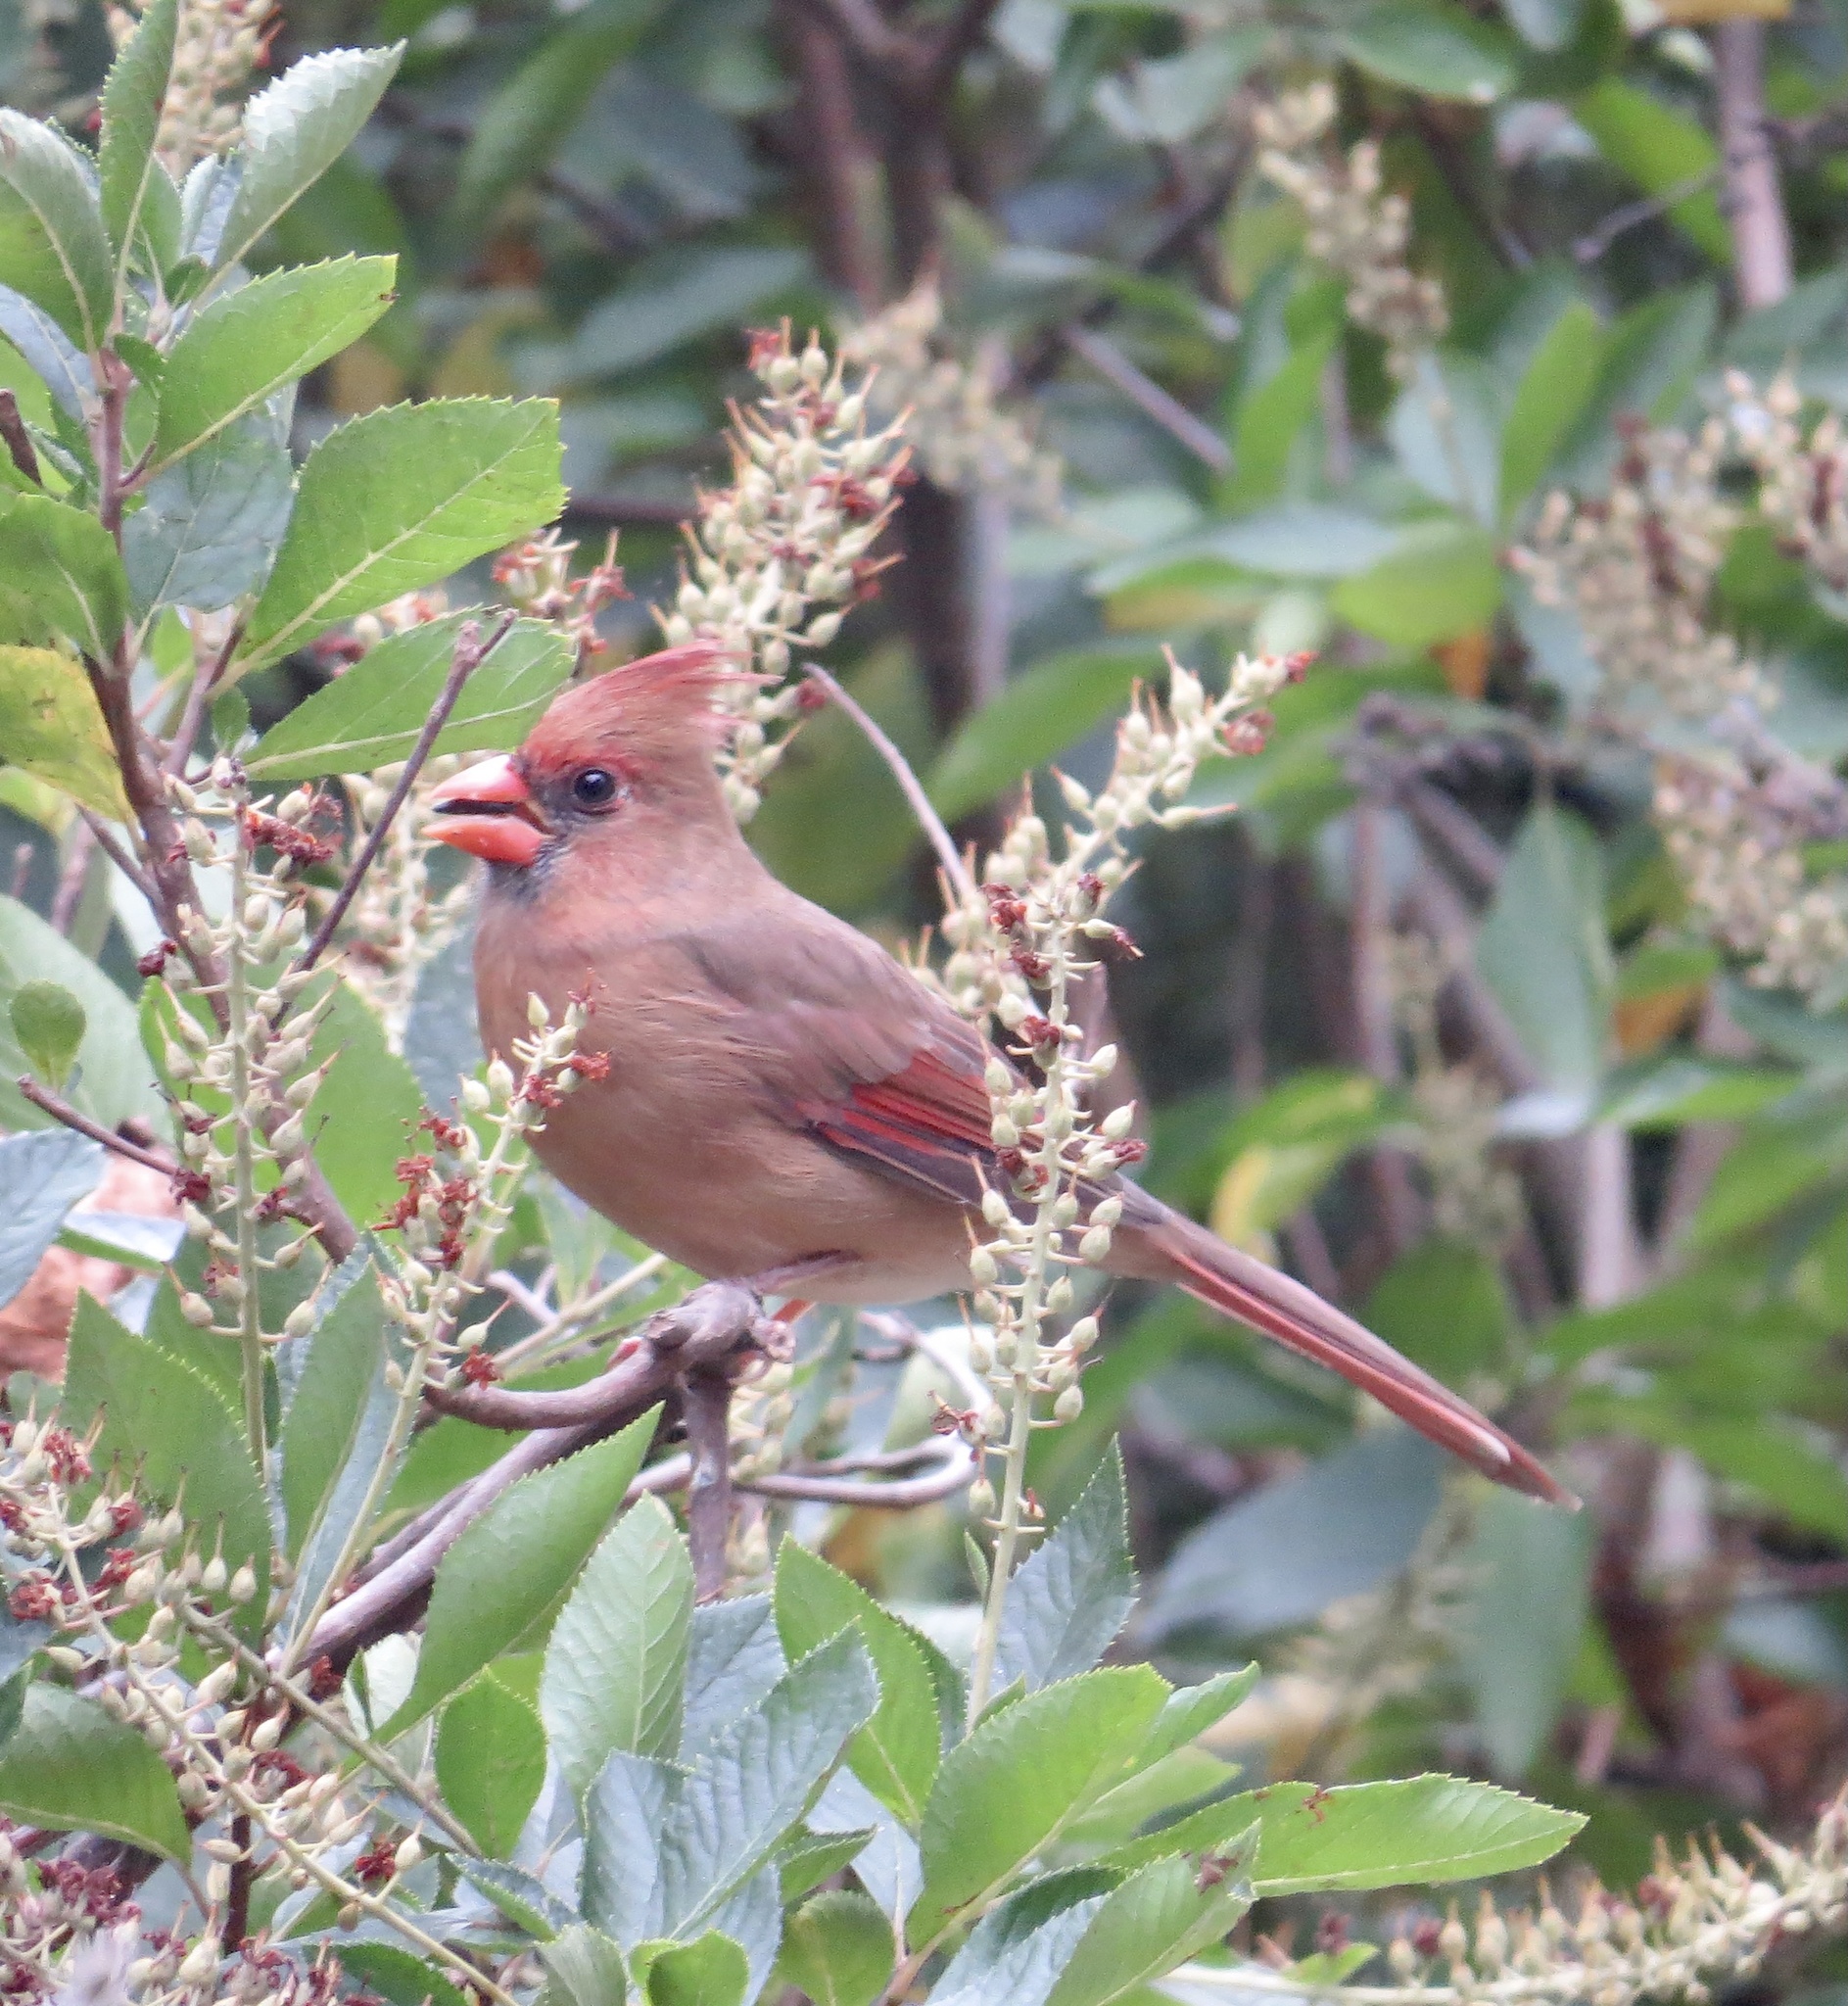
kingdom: Animalia
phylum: Chordata
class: Aves
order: Passeriformes
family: Cardinalidae
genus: Cardinalis
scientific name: Cardinalis cardinalis
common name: Northern cardinal
